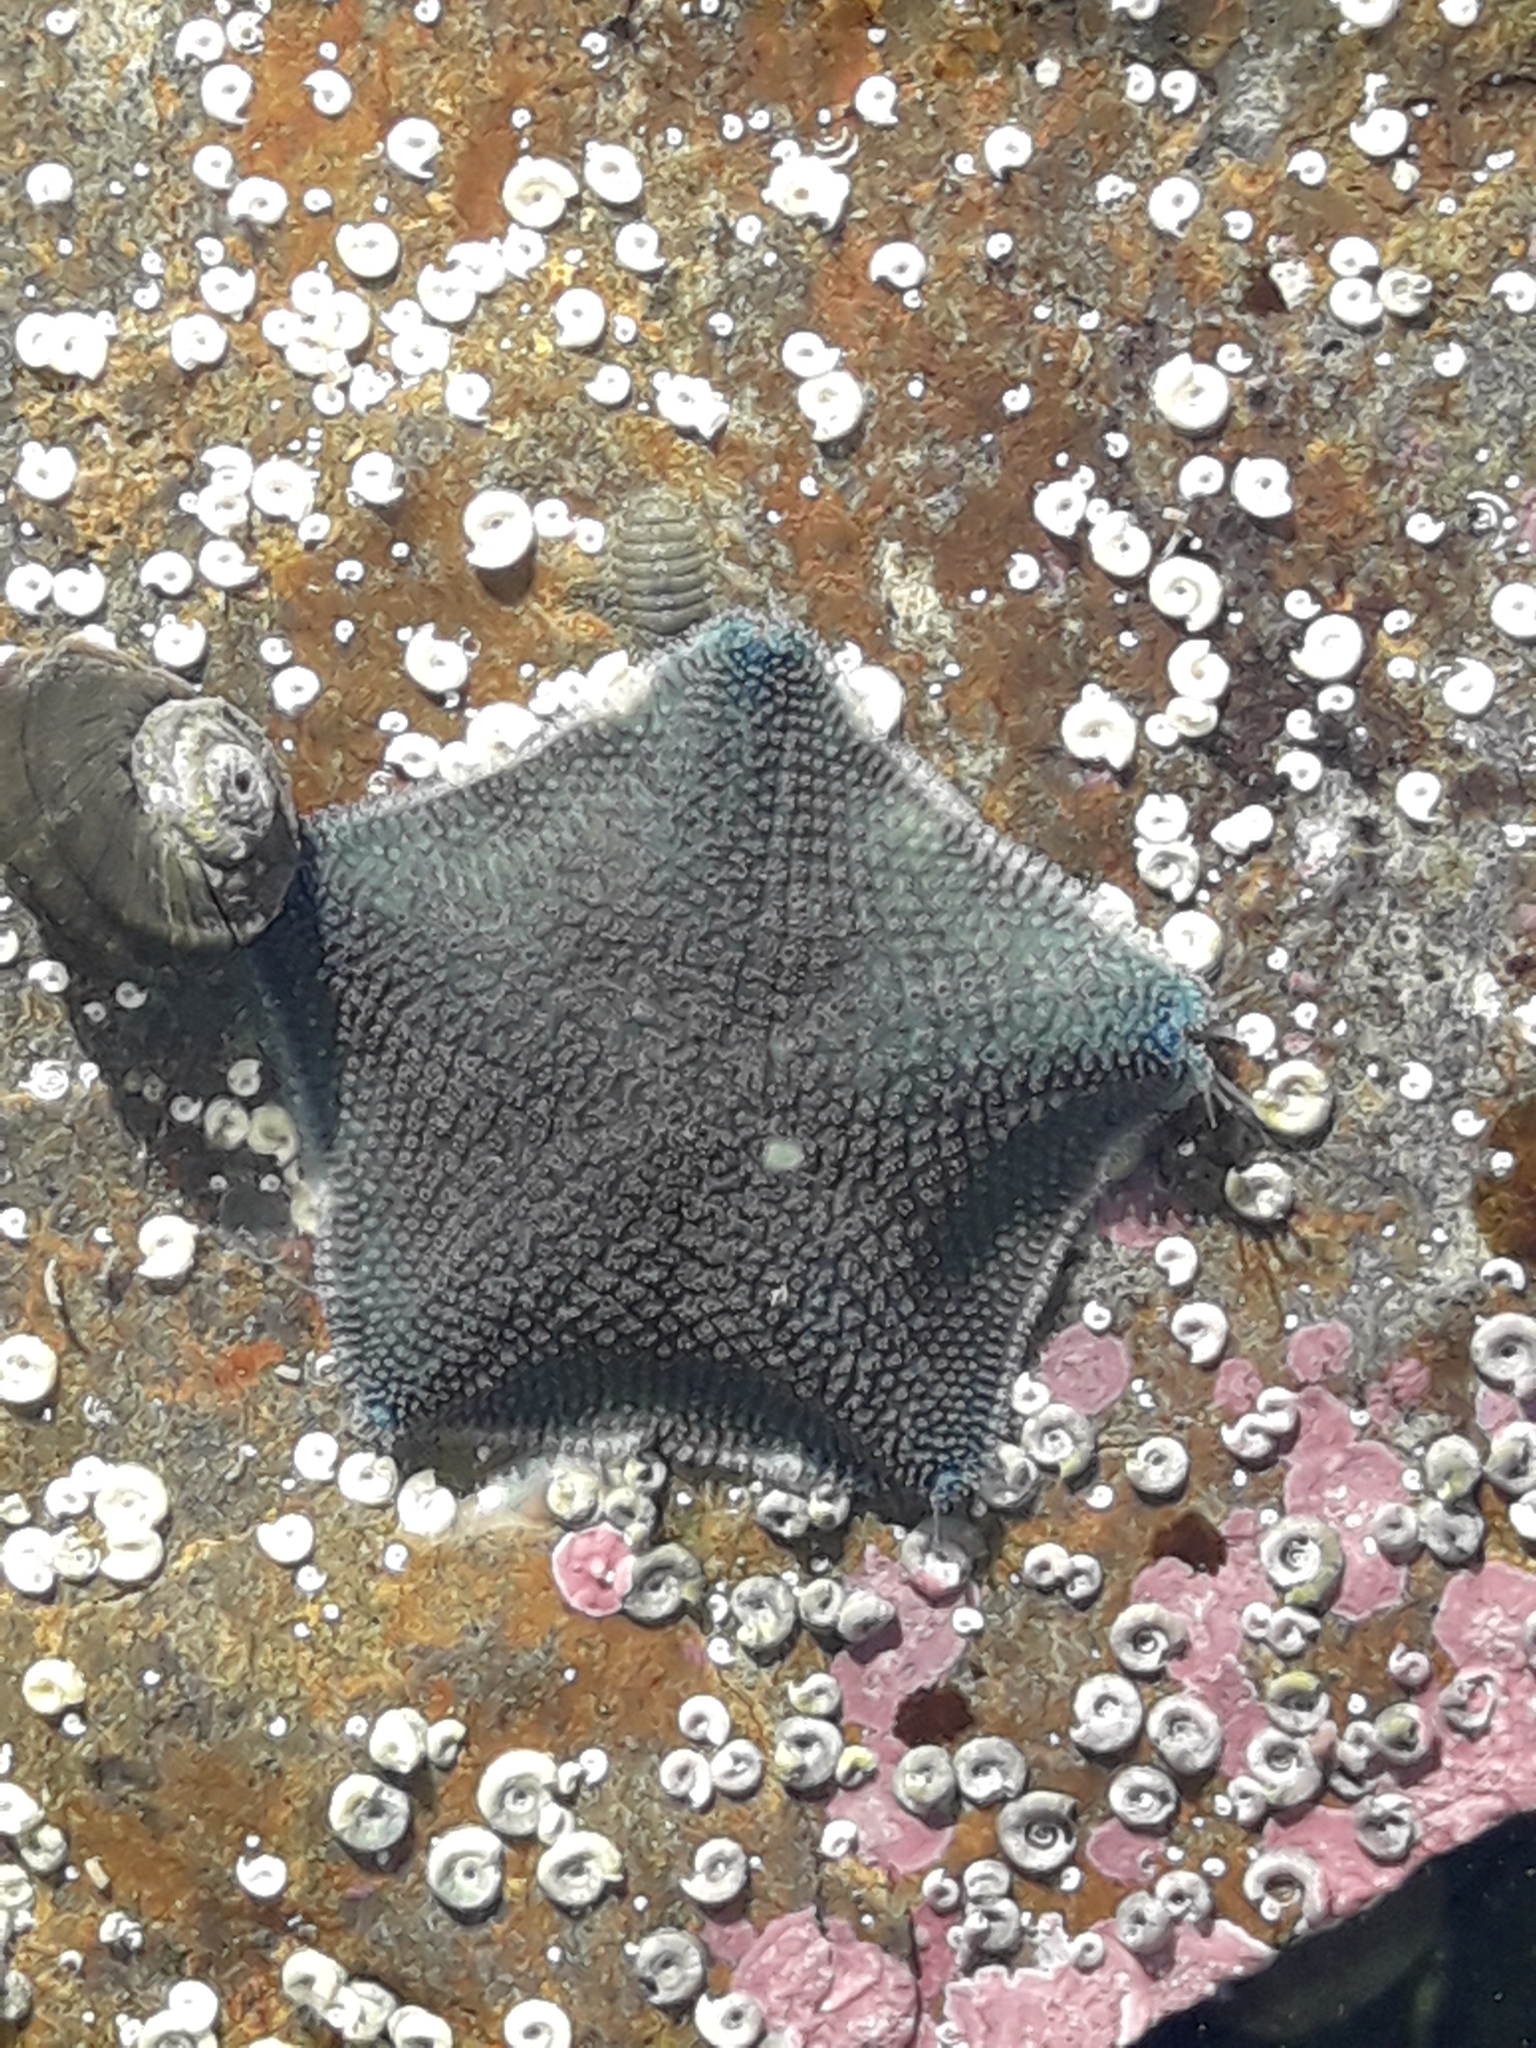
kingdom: Animalia
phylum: Echinodermata
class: Asteroidea
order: Valvatida
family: Asterinidae
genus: Patiriella
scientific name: Patiriella regularis
